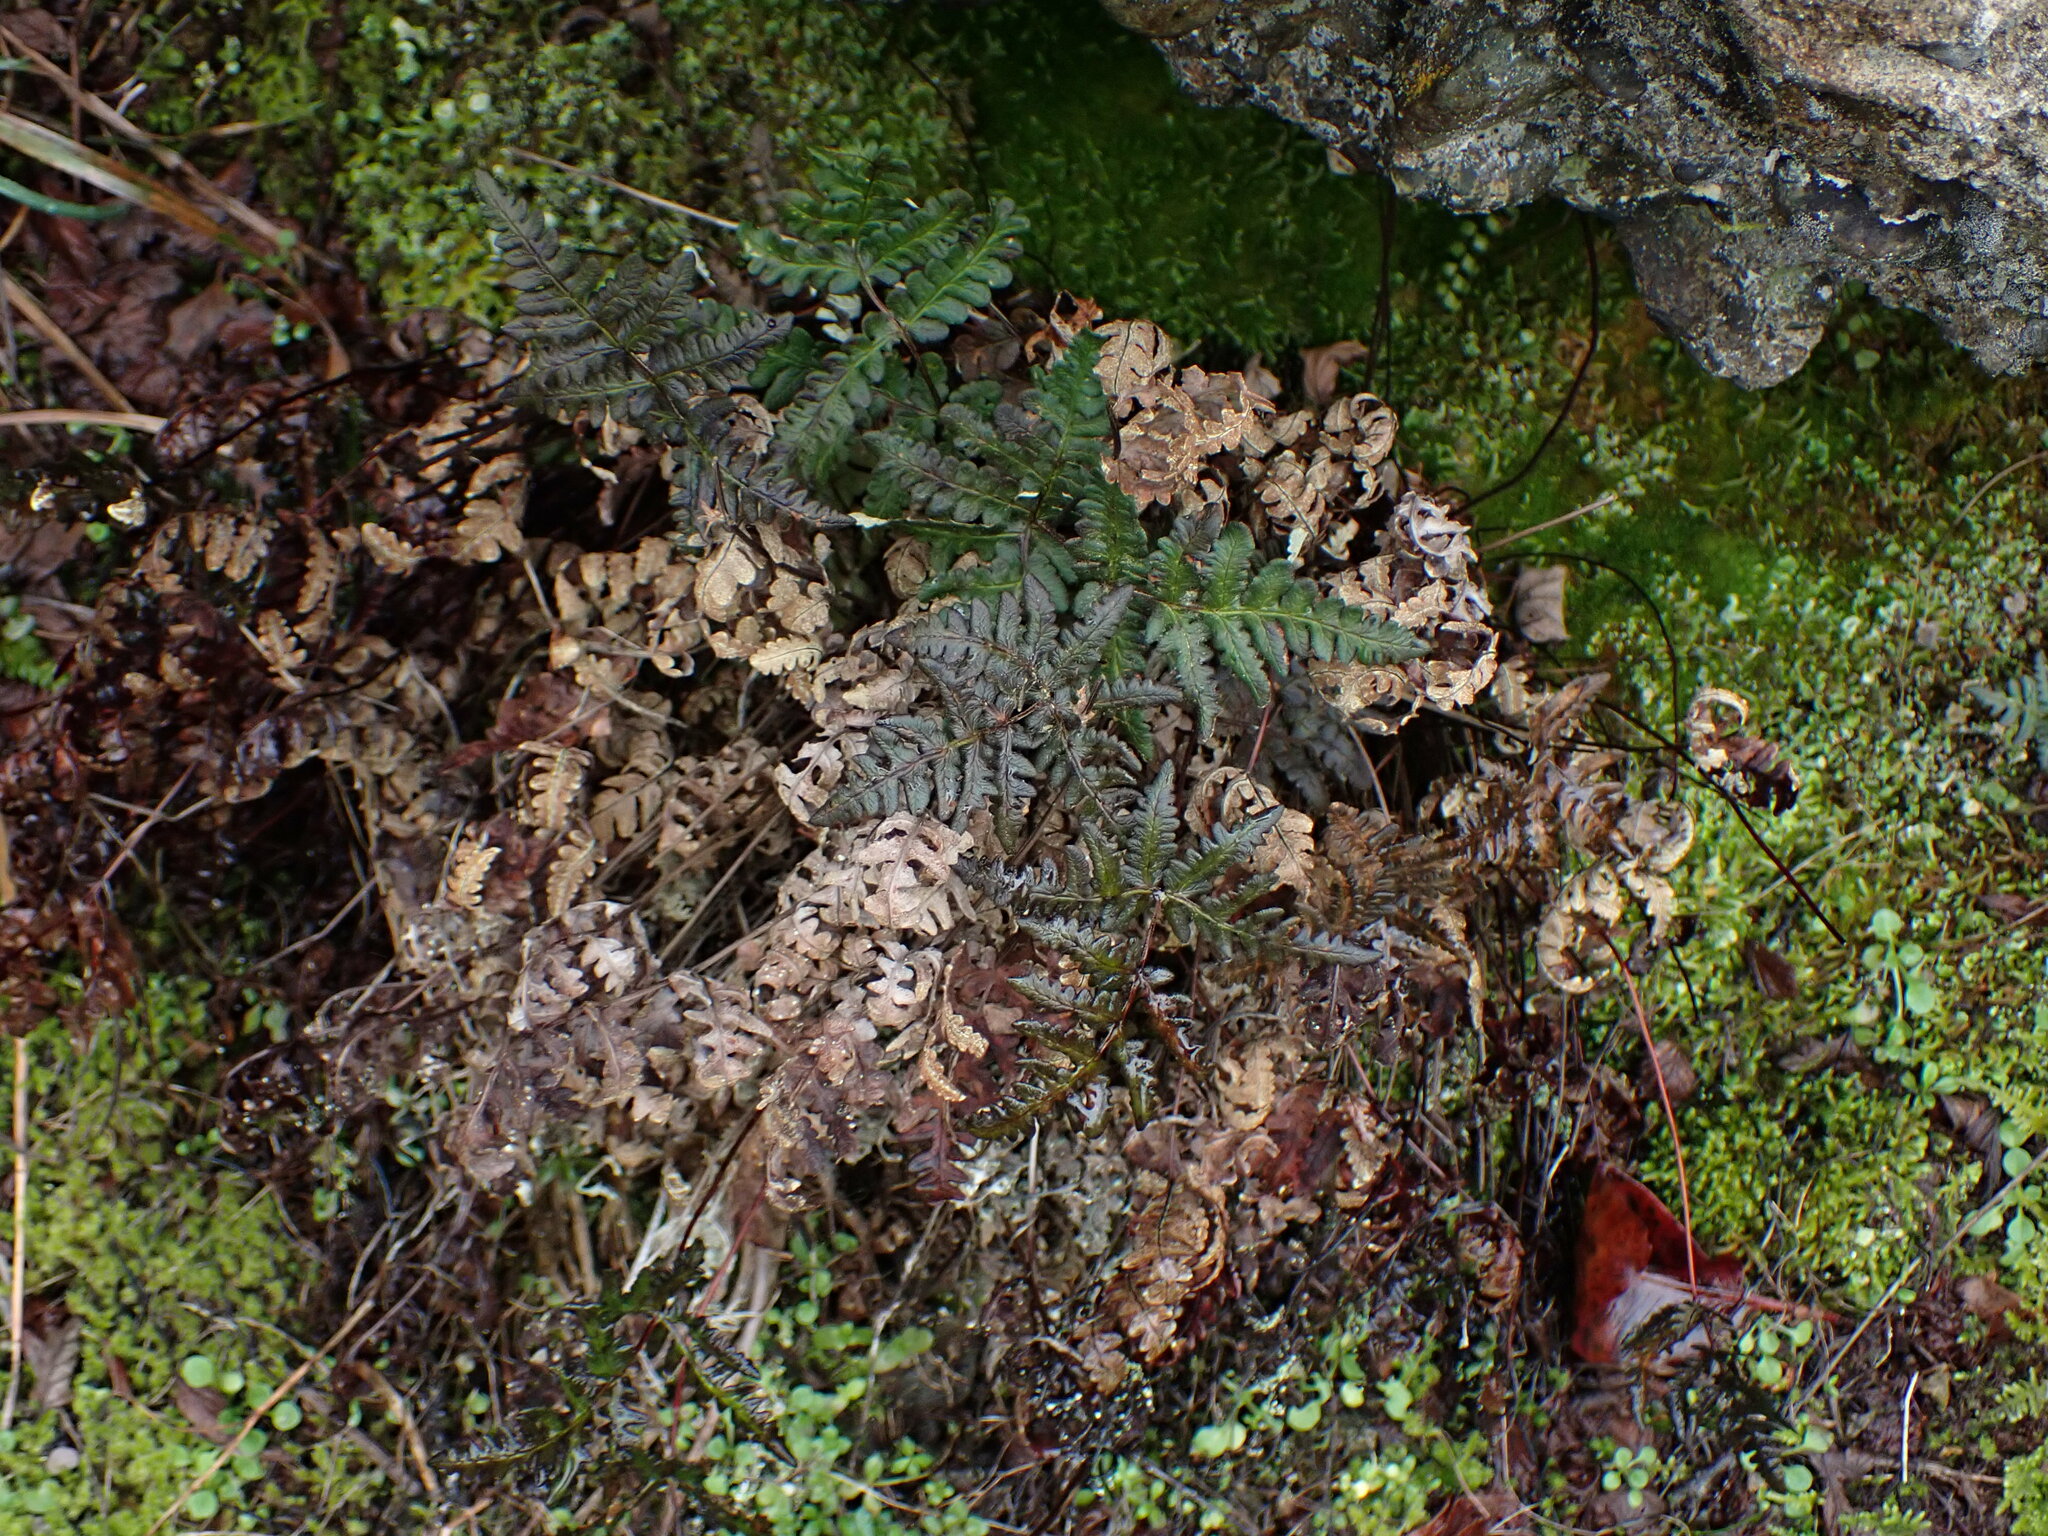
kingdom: Plantae
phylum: Tracheophyta
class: Polypodiopsida
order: Polypodiales
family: Pteridaceae
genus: Pentagramma
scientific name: Pentagramma triangularis
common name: Gold fern
